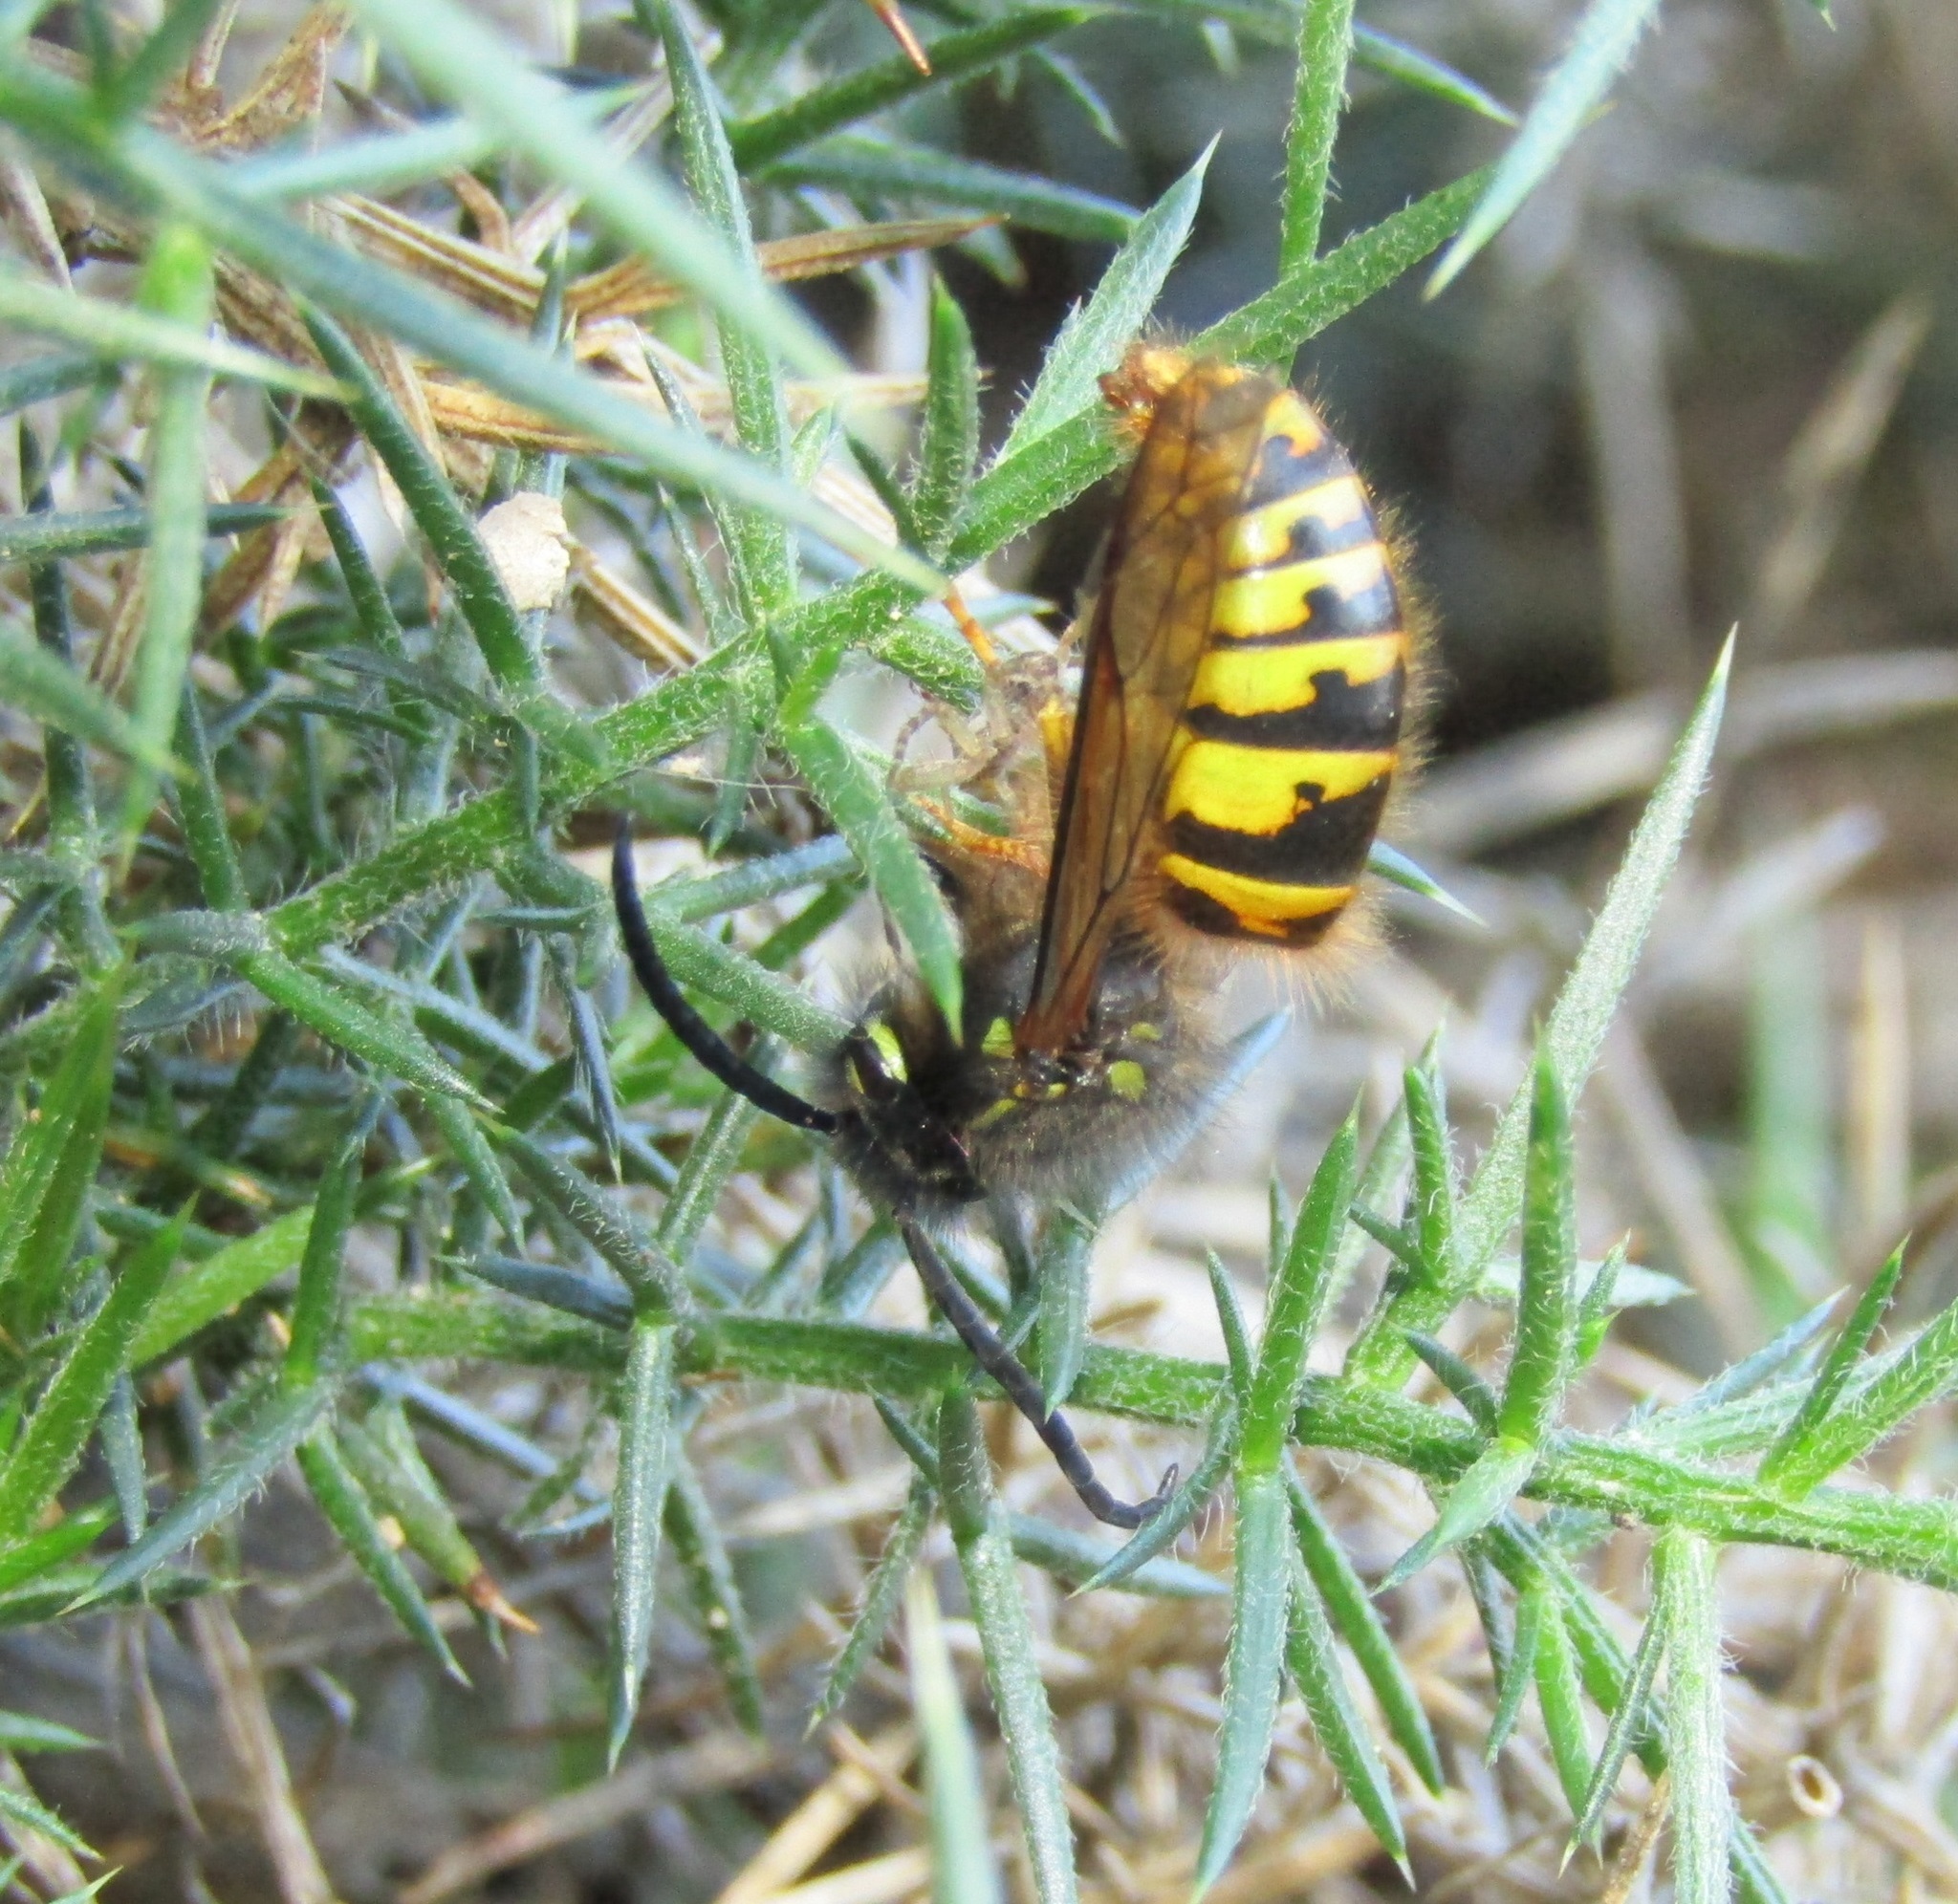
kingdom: Animalia
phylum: Arthropoda
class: Insecta
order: Hymenoptera
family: Vespidae
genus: Vespula
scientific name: Vespula vulgaris
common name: Common wasp
